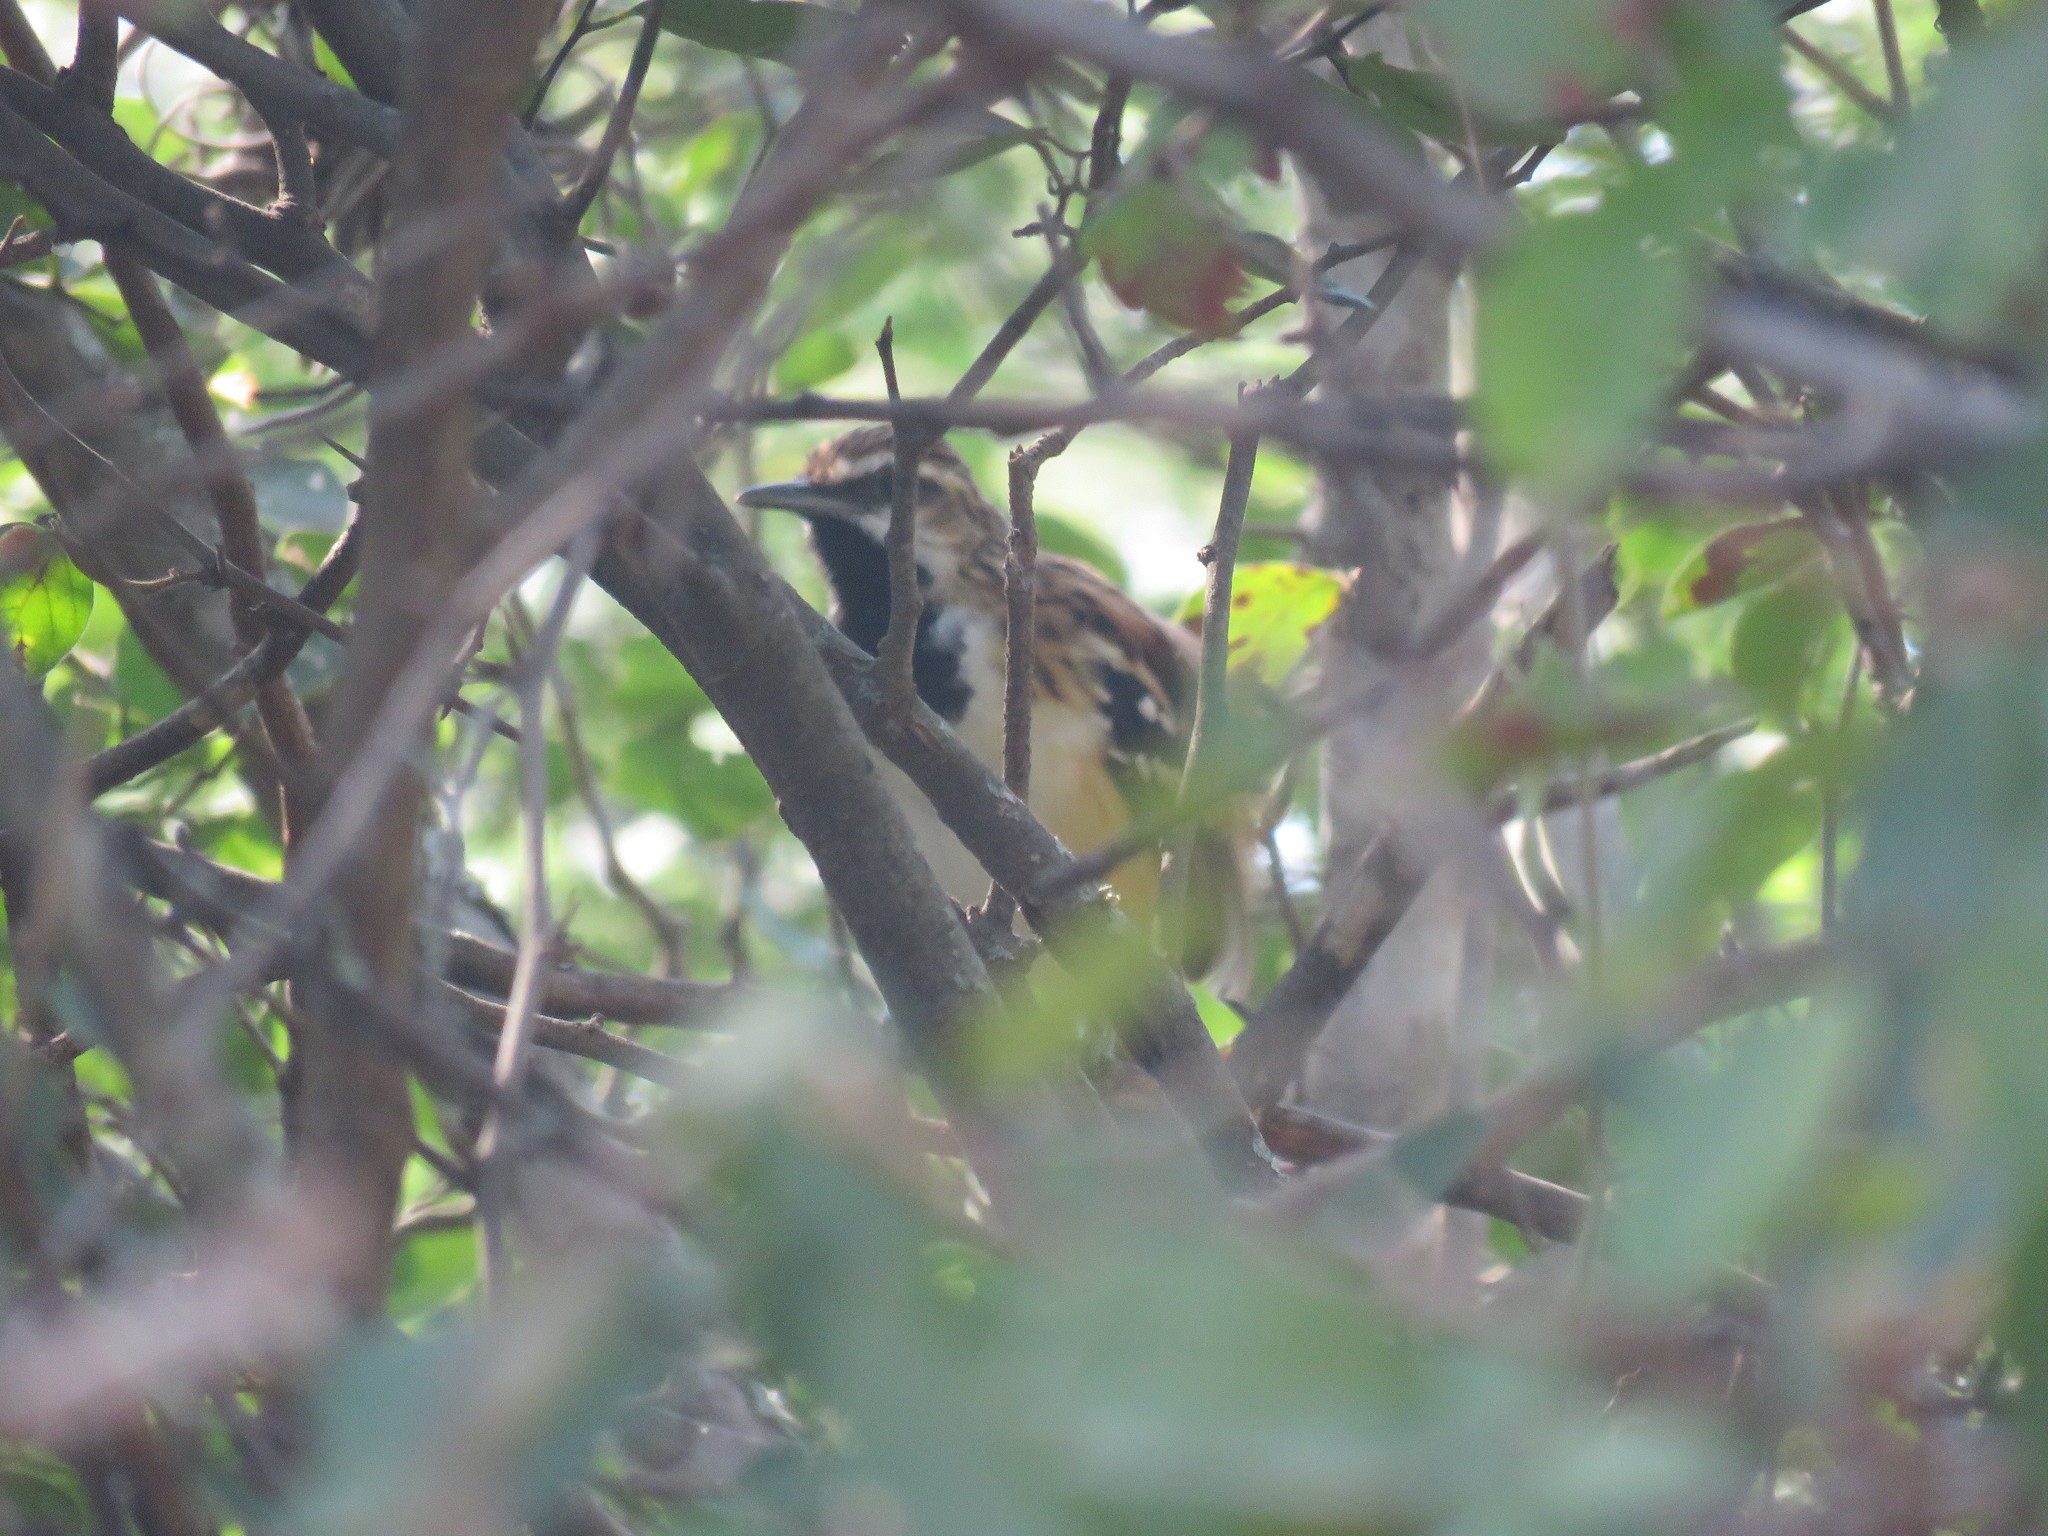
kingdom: Animalia
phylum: Chordata
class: Aves
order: Passeriformes
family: Thamnophilidae
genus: Myrmorchilus
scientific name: Myrmorchilus strigilatus
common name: Stripe-backed antbird
